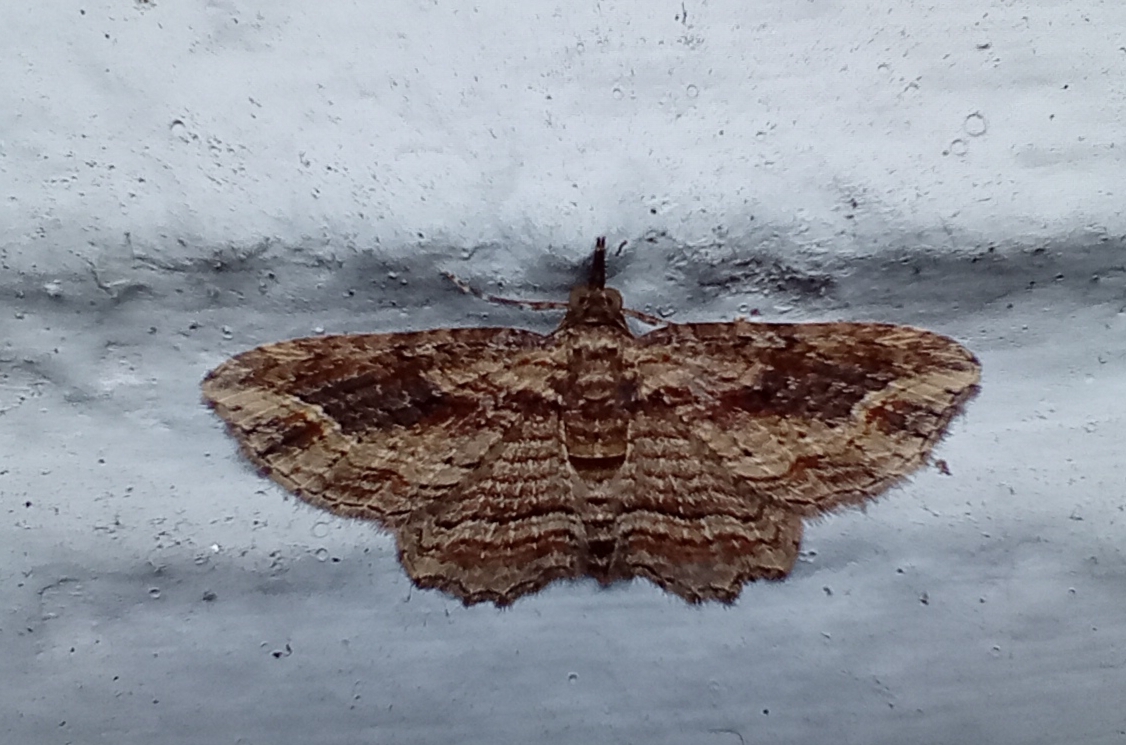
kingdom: Animalia
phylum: Arthropoda
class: Insecta
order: Lepidoptera
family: Geometridae
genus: Chloroclystis
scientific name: Chloroclystis filata
